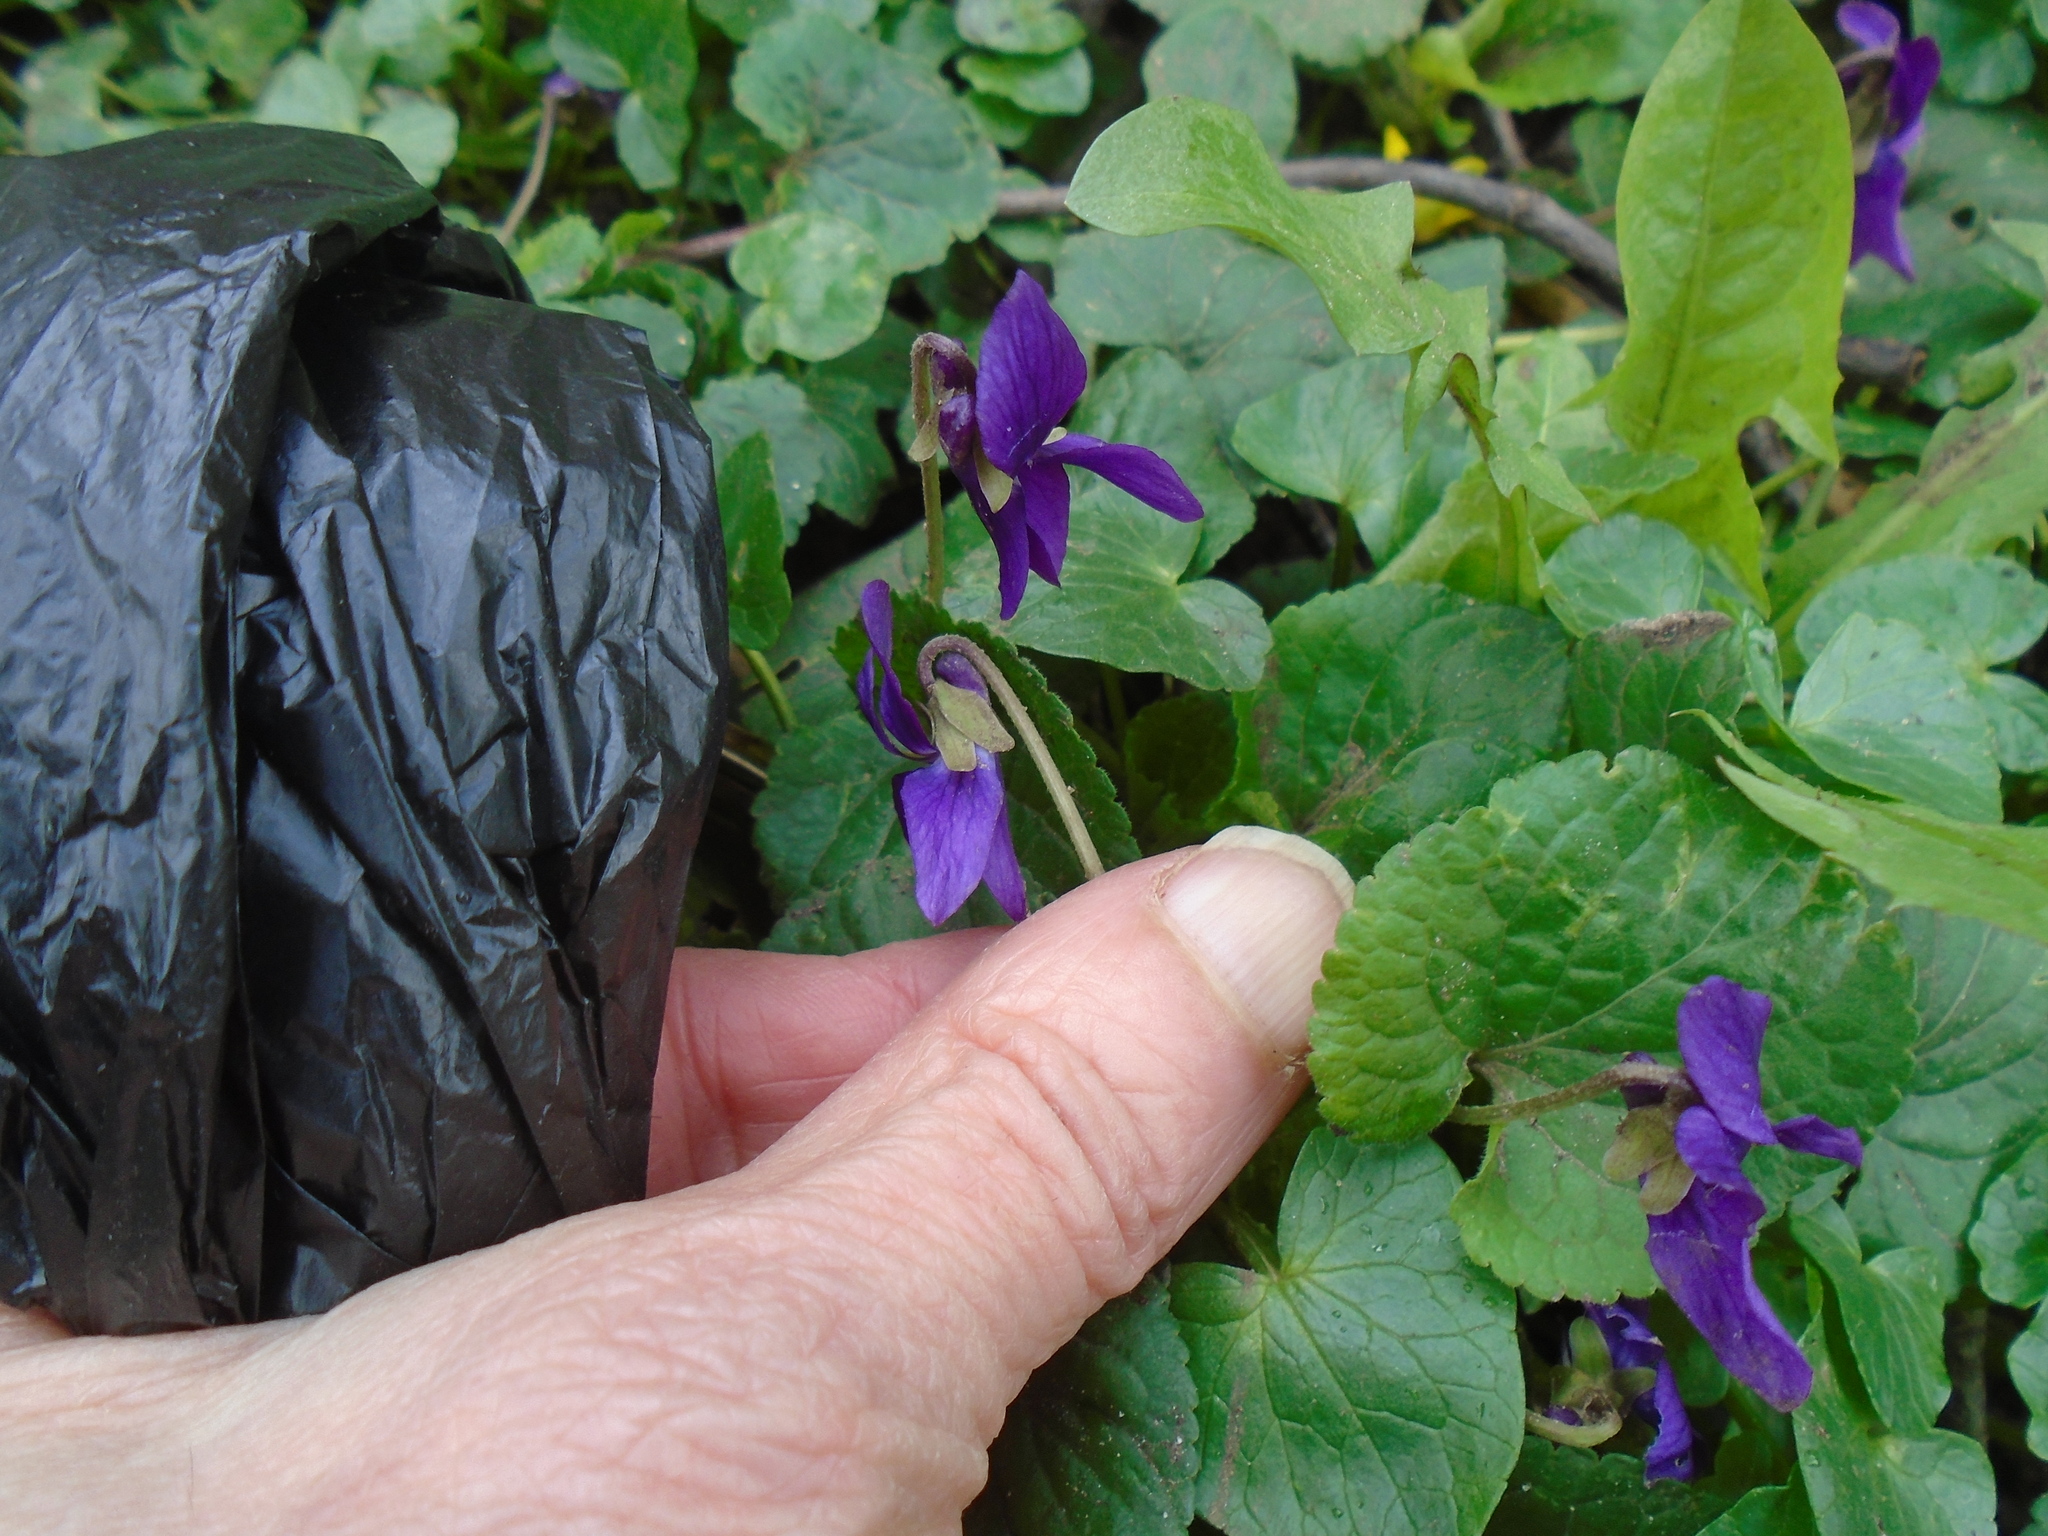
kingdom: Plantae
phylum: Tracheophyta
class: Magnoliopsida
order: Malpighiales
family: Violaceae
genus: Viola
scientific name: Viola odorata
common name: Sweet violet
